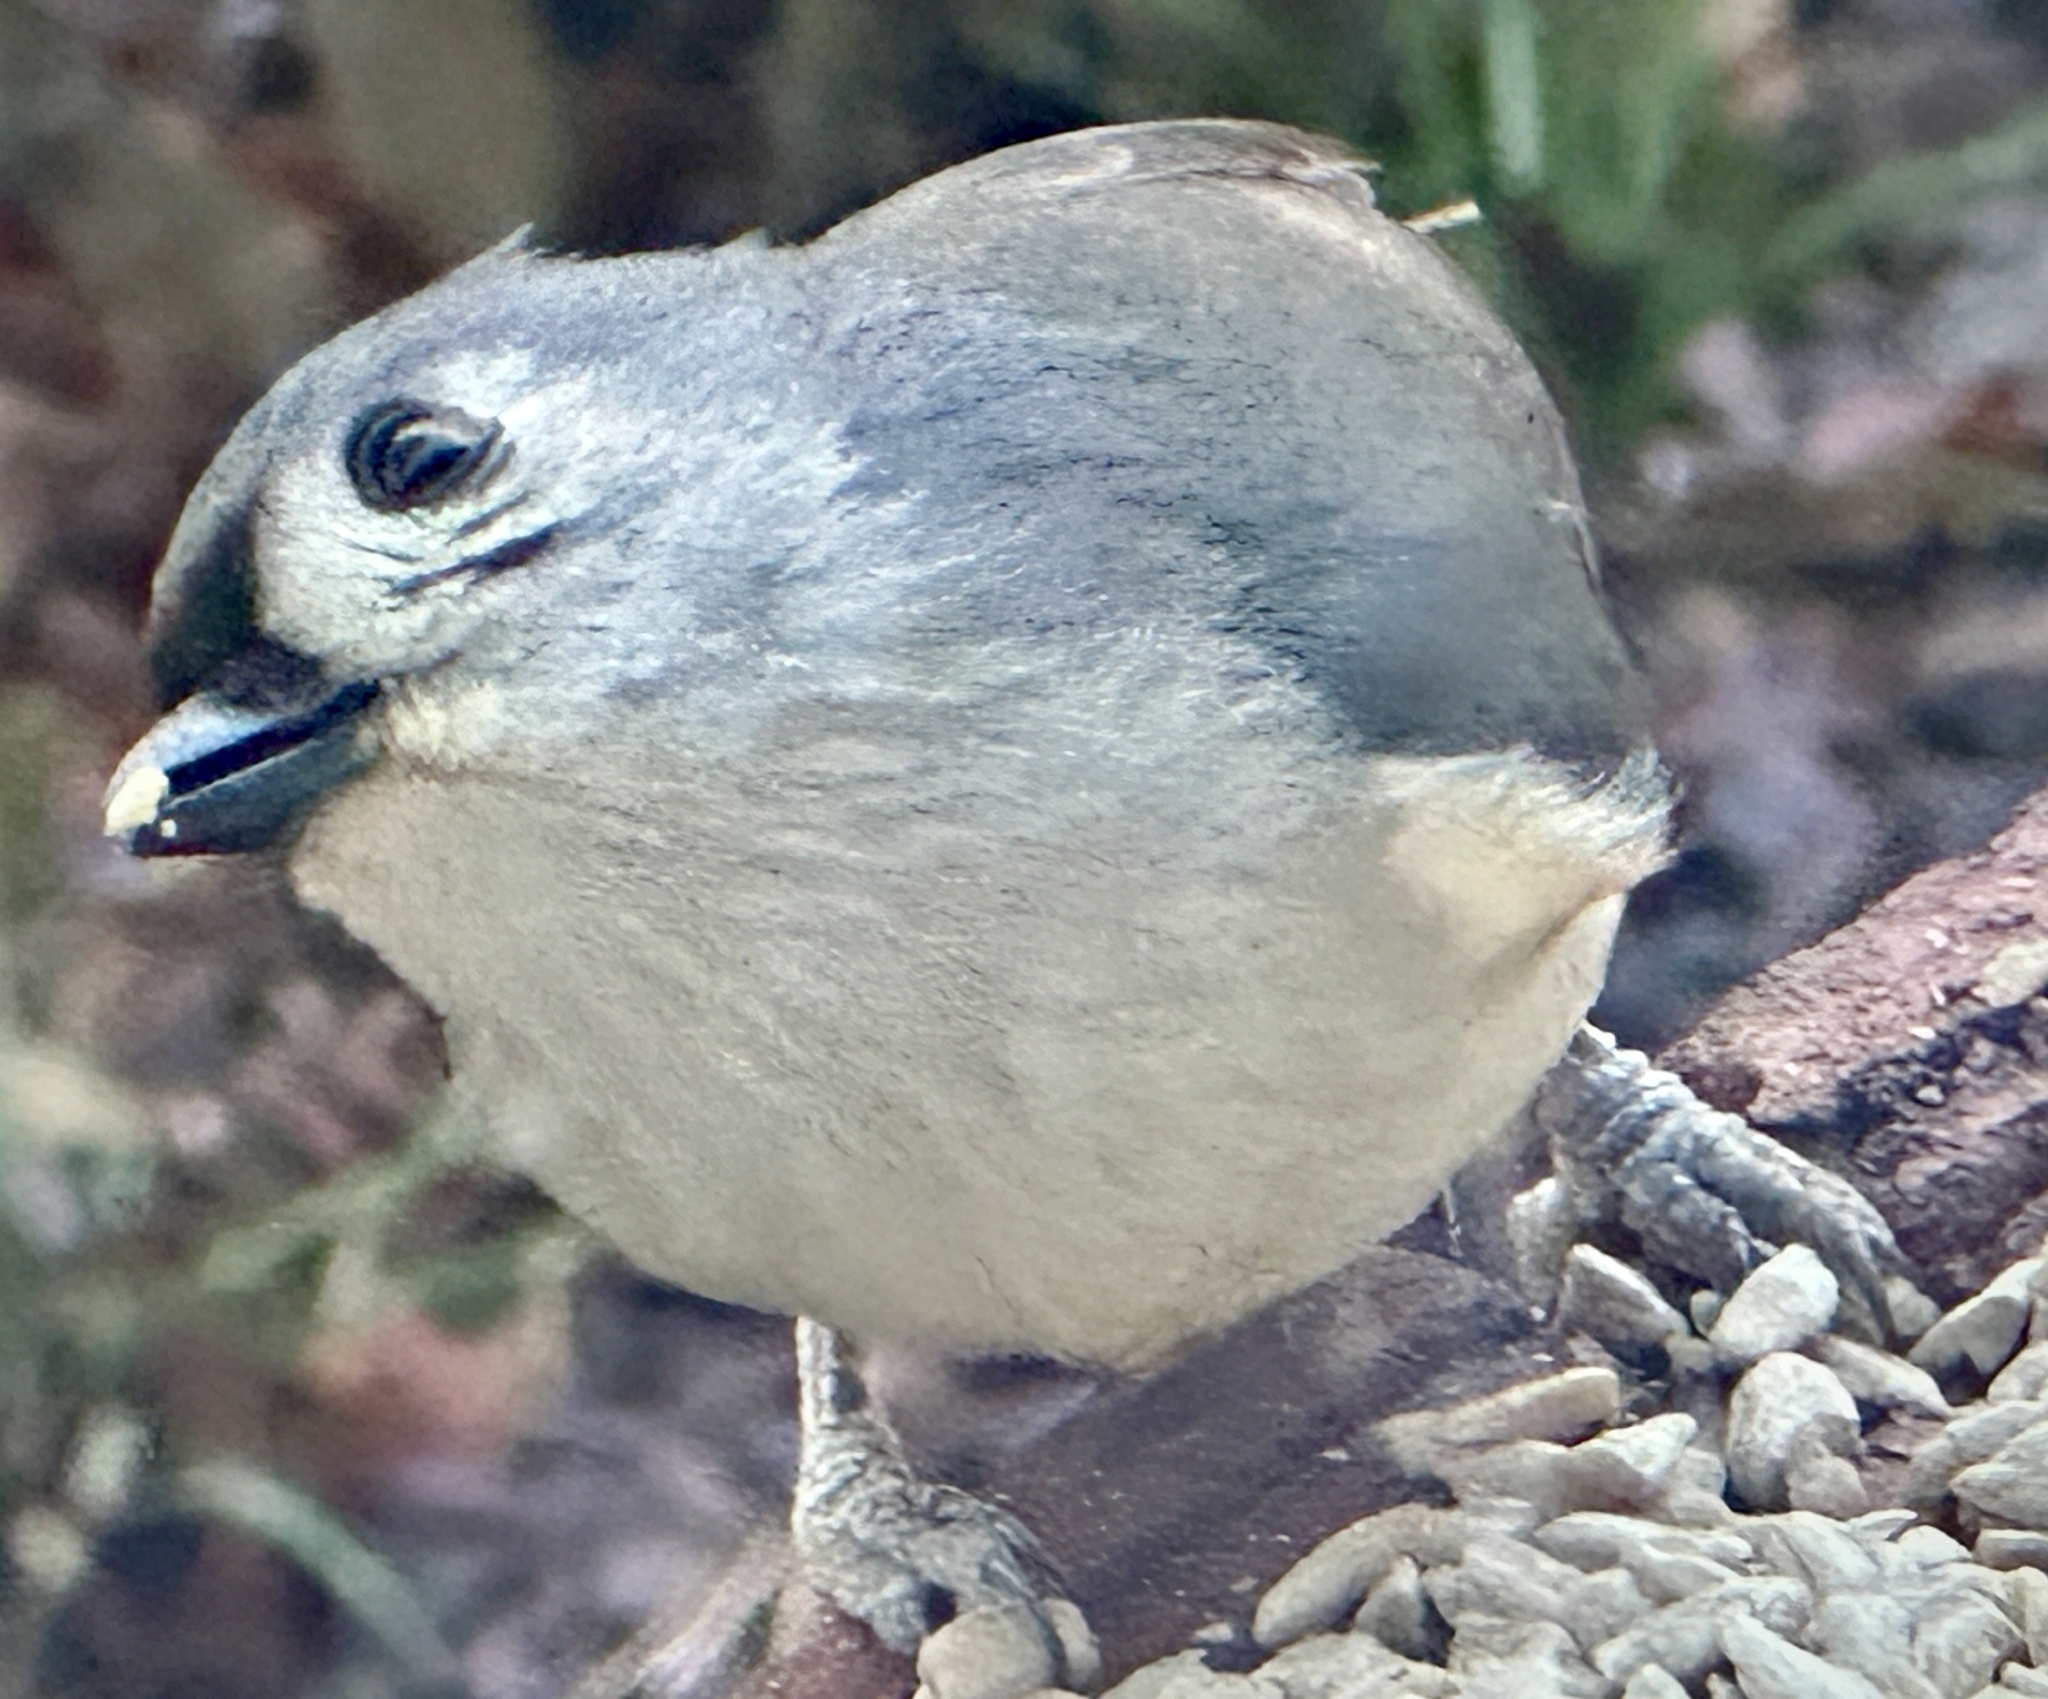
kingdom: Animalia
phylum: Chordata
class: Aves
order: Passeriformes
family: Paridae
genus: Baeolophus
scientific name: Baeolophus bicolor
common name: Tufted titmouse
